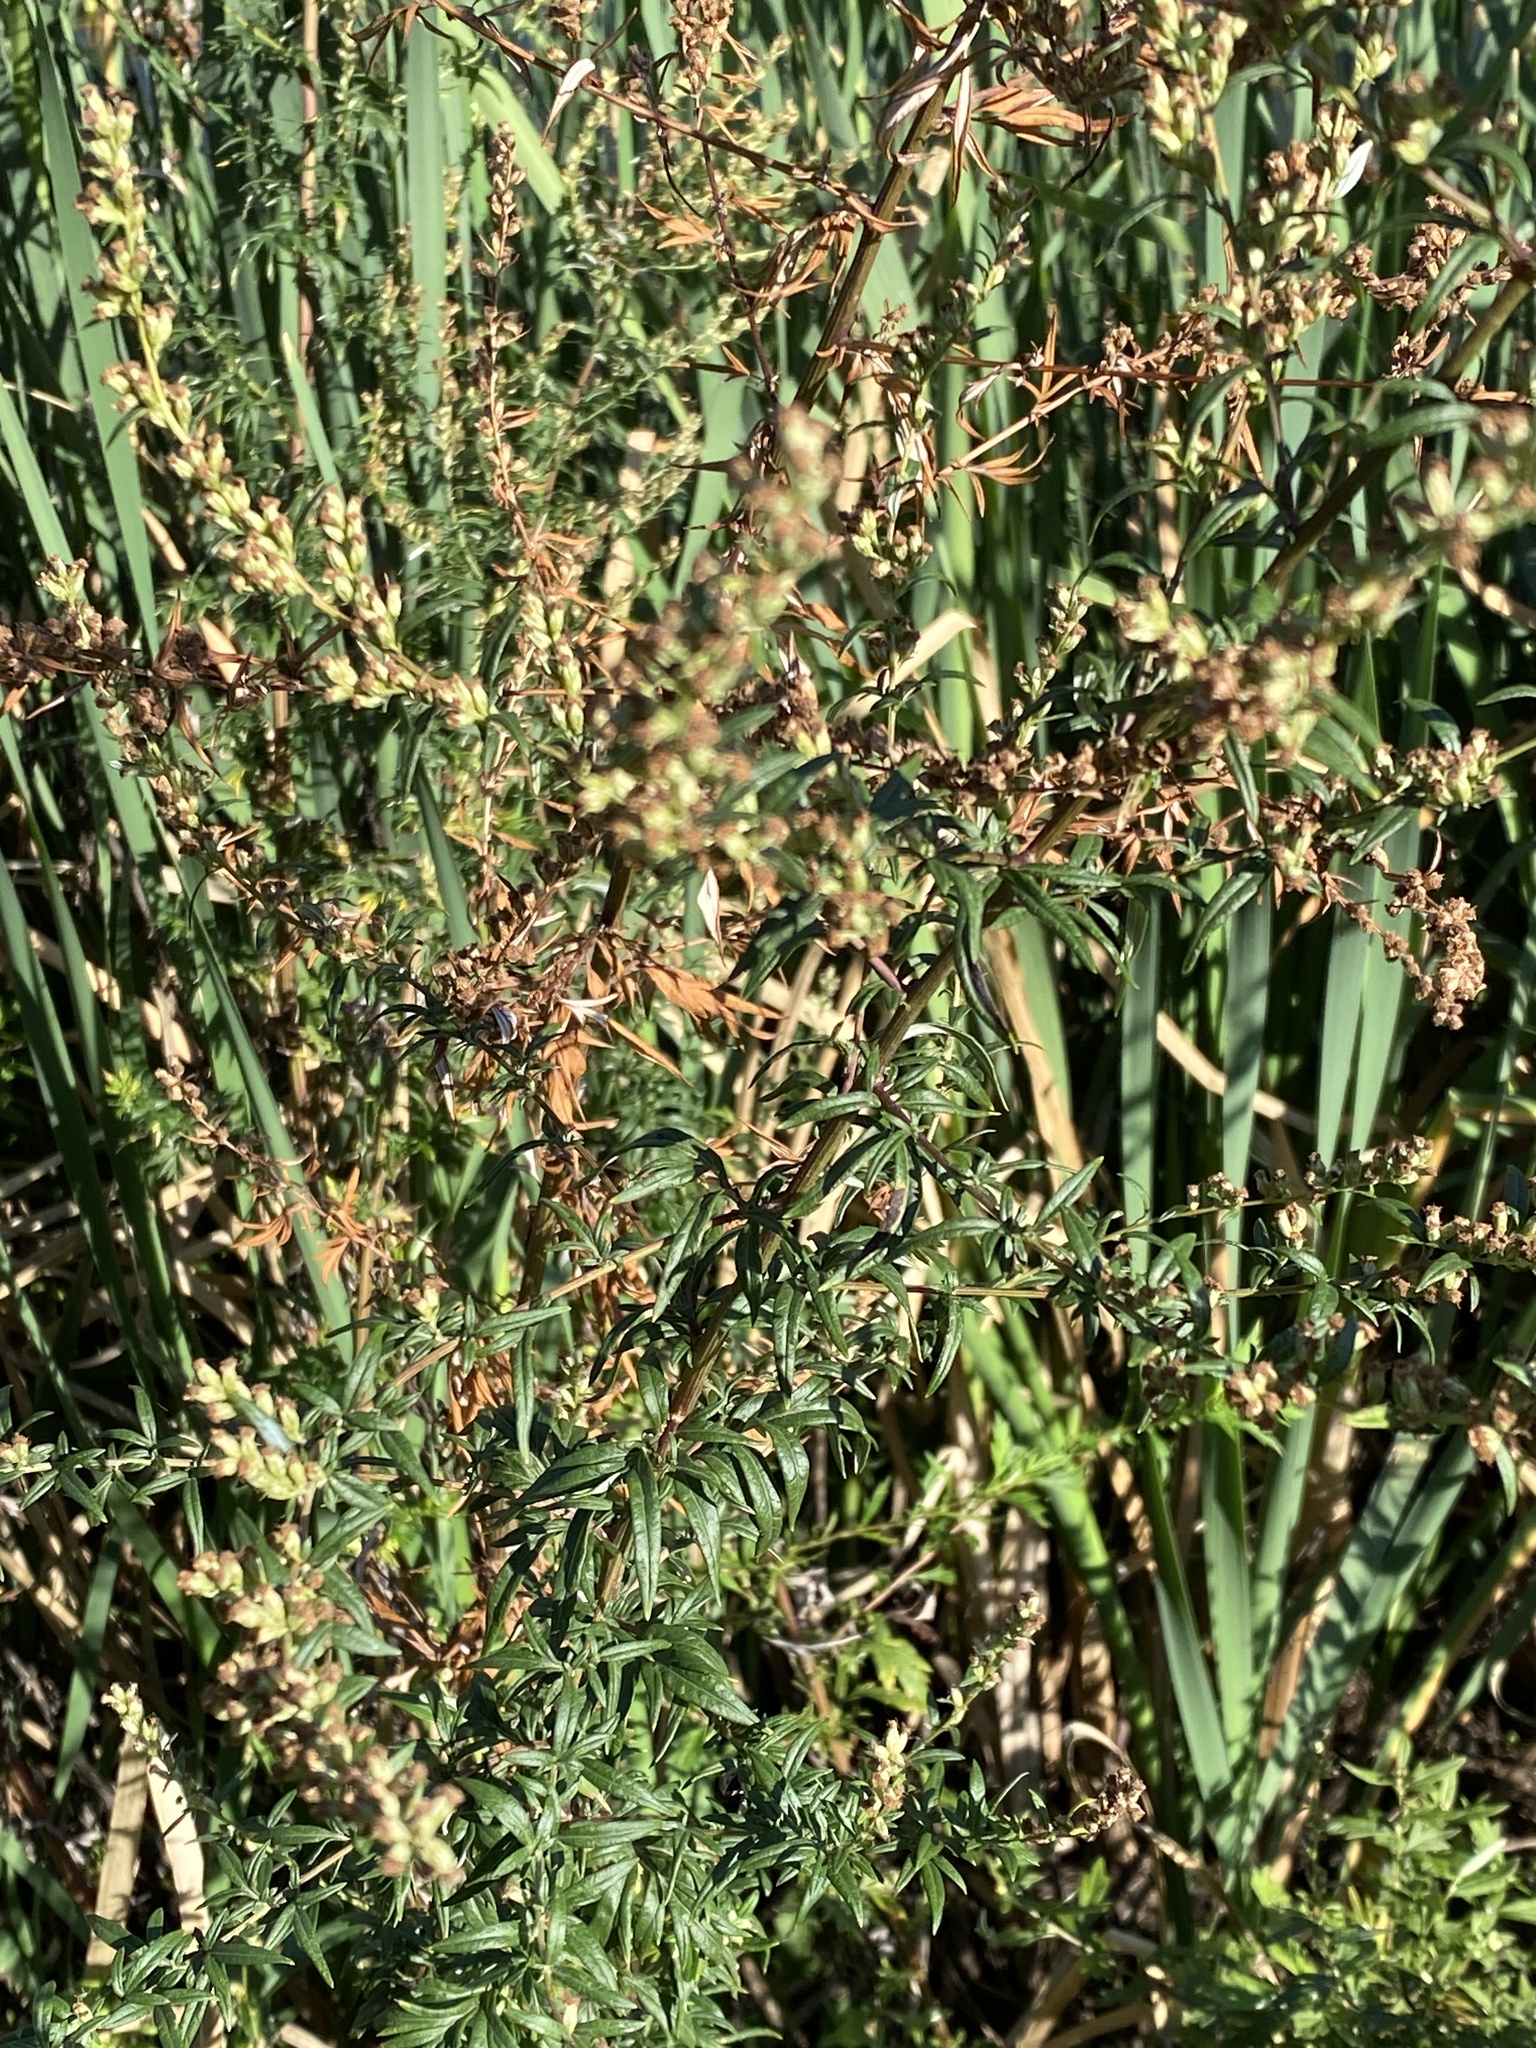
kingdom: Plantae
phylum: Tracheophyta
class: Magnoliopsida
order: Asterales
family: Asteraceae
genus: Artemisia
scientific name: Artemisia vulgaris
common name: Mugwort
